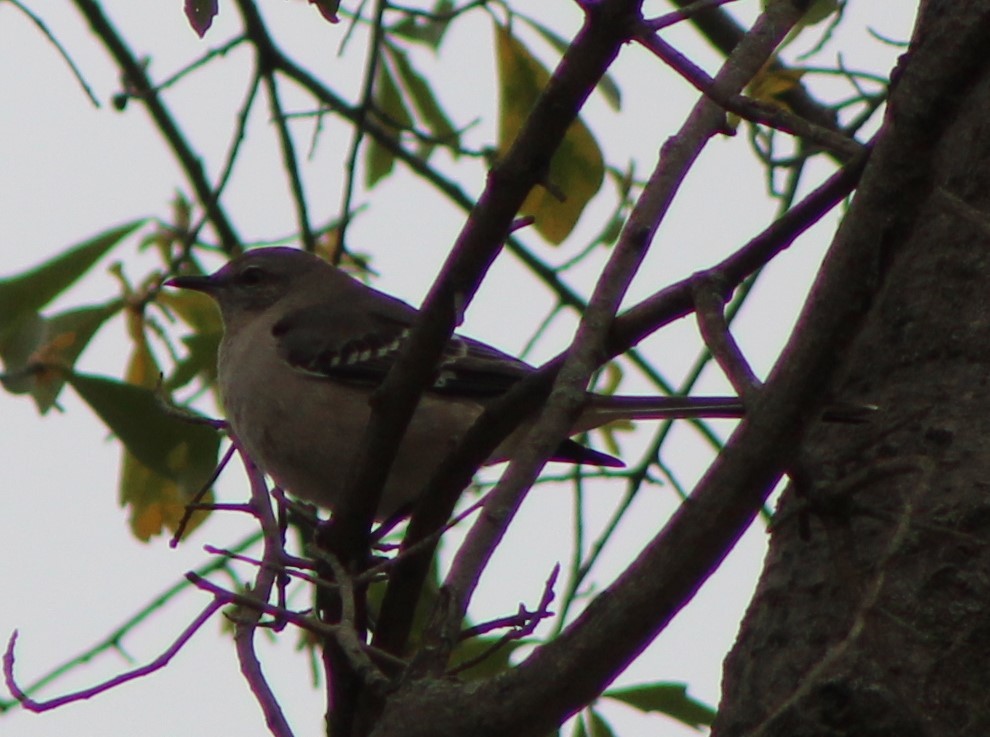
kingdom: Animalia
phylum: Chordata
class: Aves
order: Passeriformes
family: Mimidae
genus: Mimus
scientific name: Mimus polyglottos
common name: Northern mockingbird
